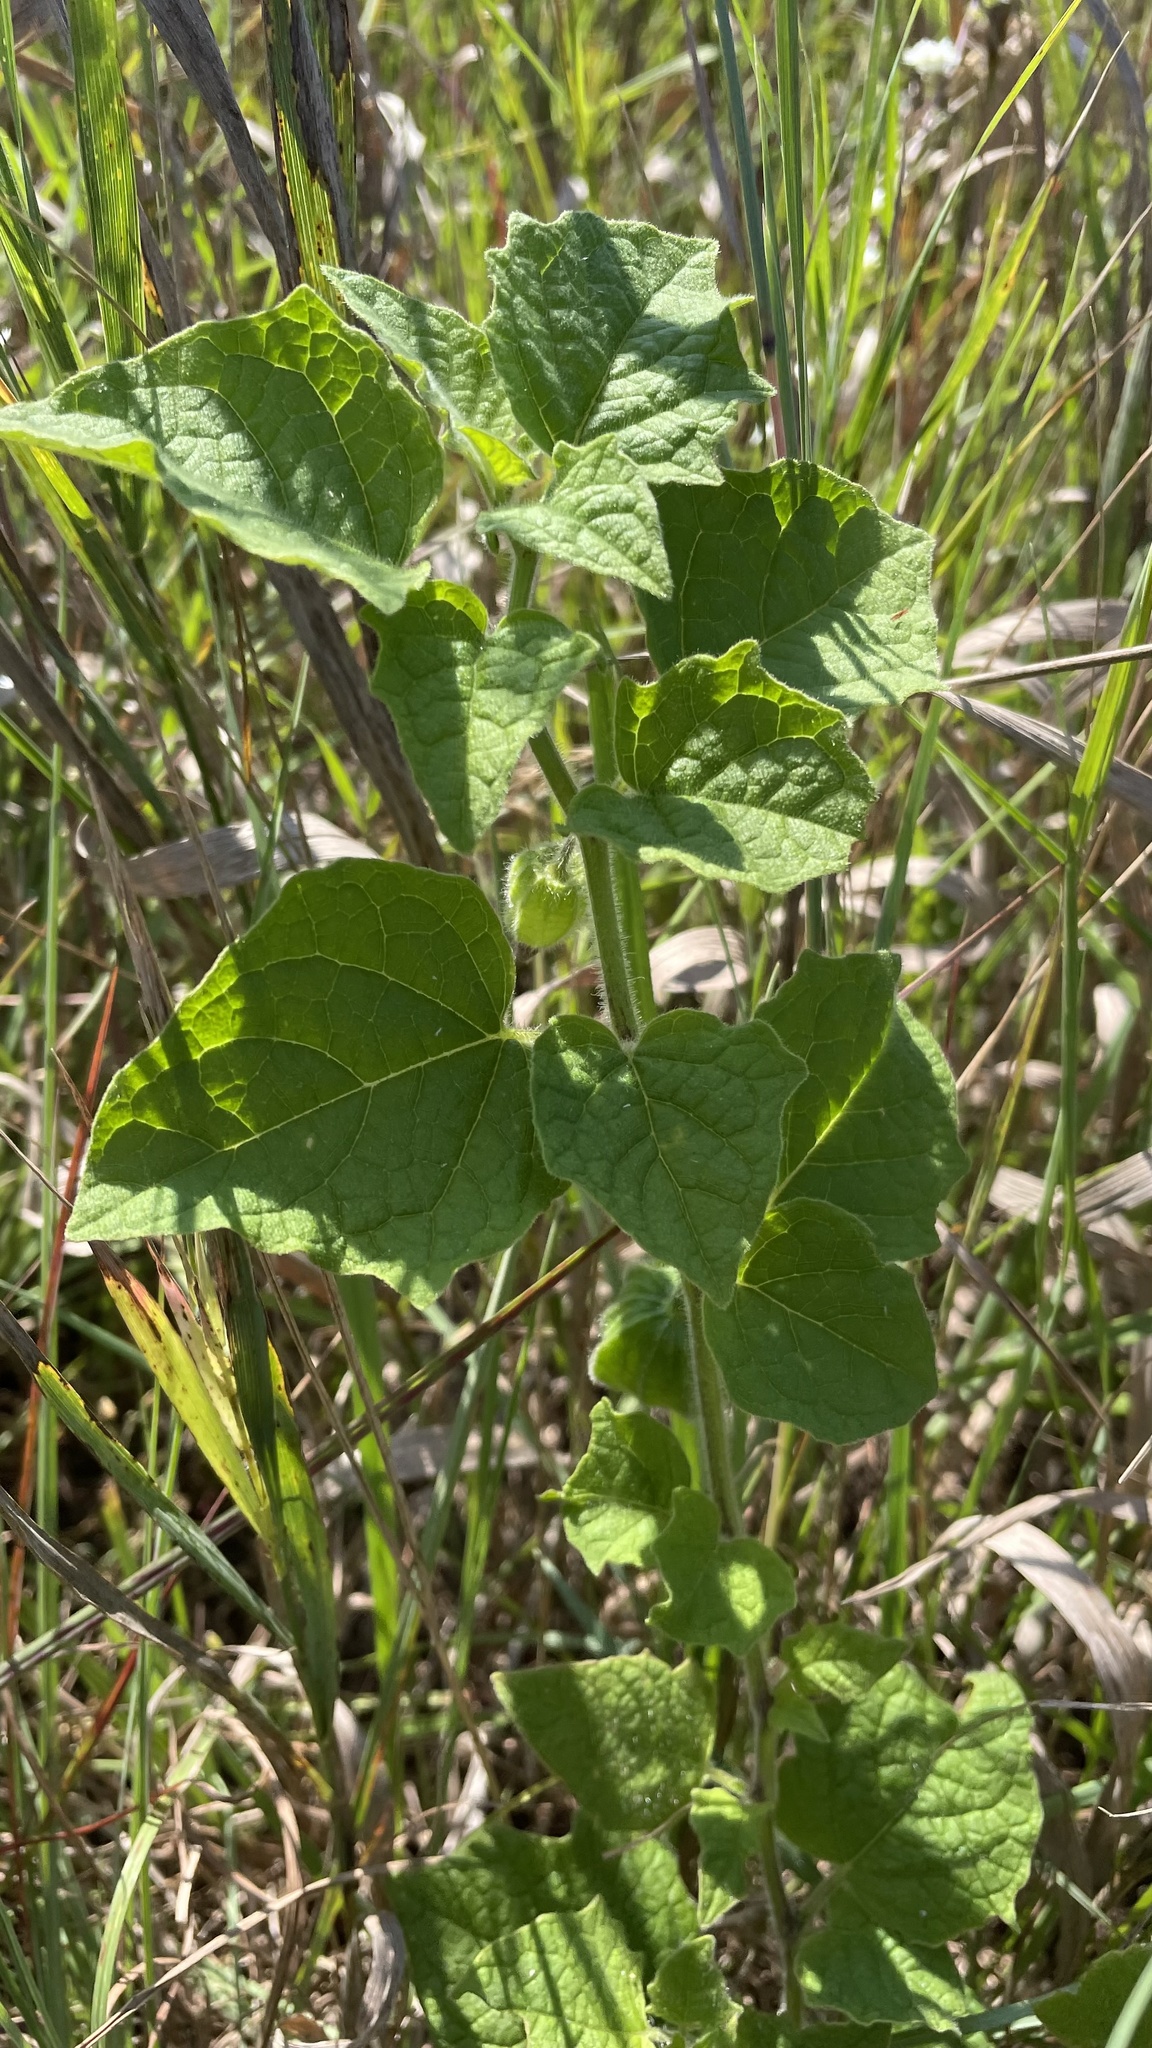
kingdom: Plantae
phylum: Tracheophyta
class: Magnoliopsida
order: Solanales
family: Solanaceae
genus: Physalis
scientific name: Physalis heterophylla
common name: Clammy ground-cherry
